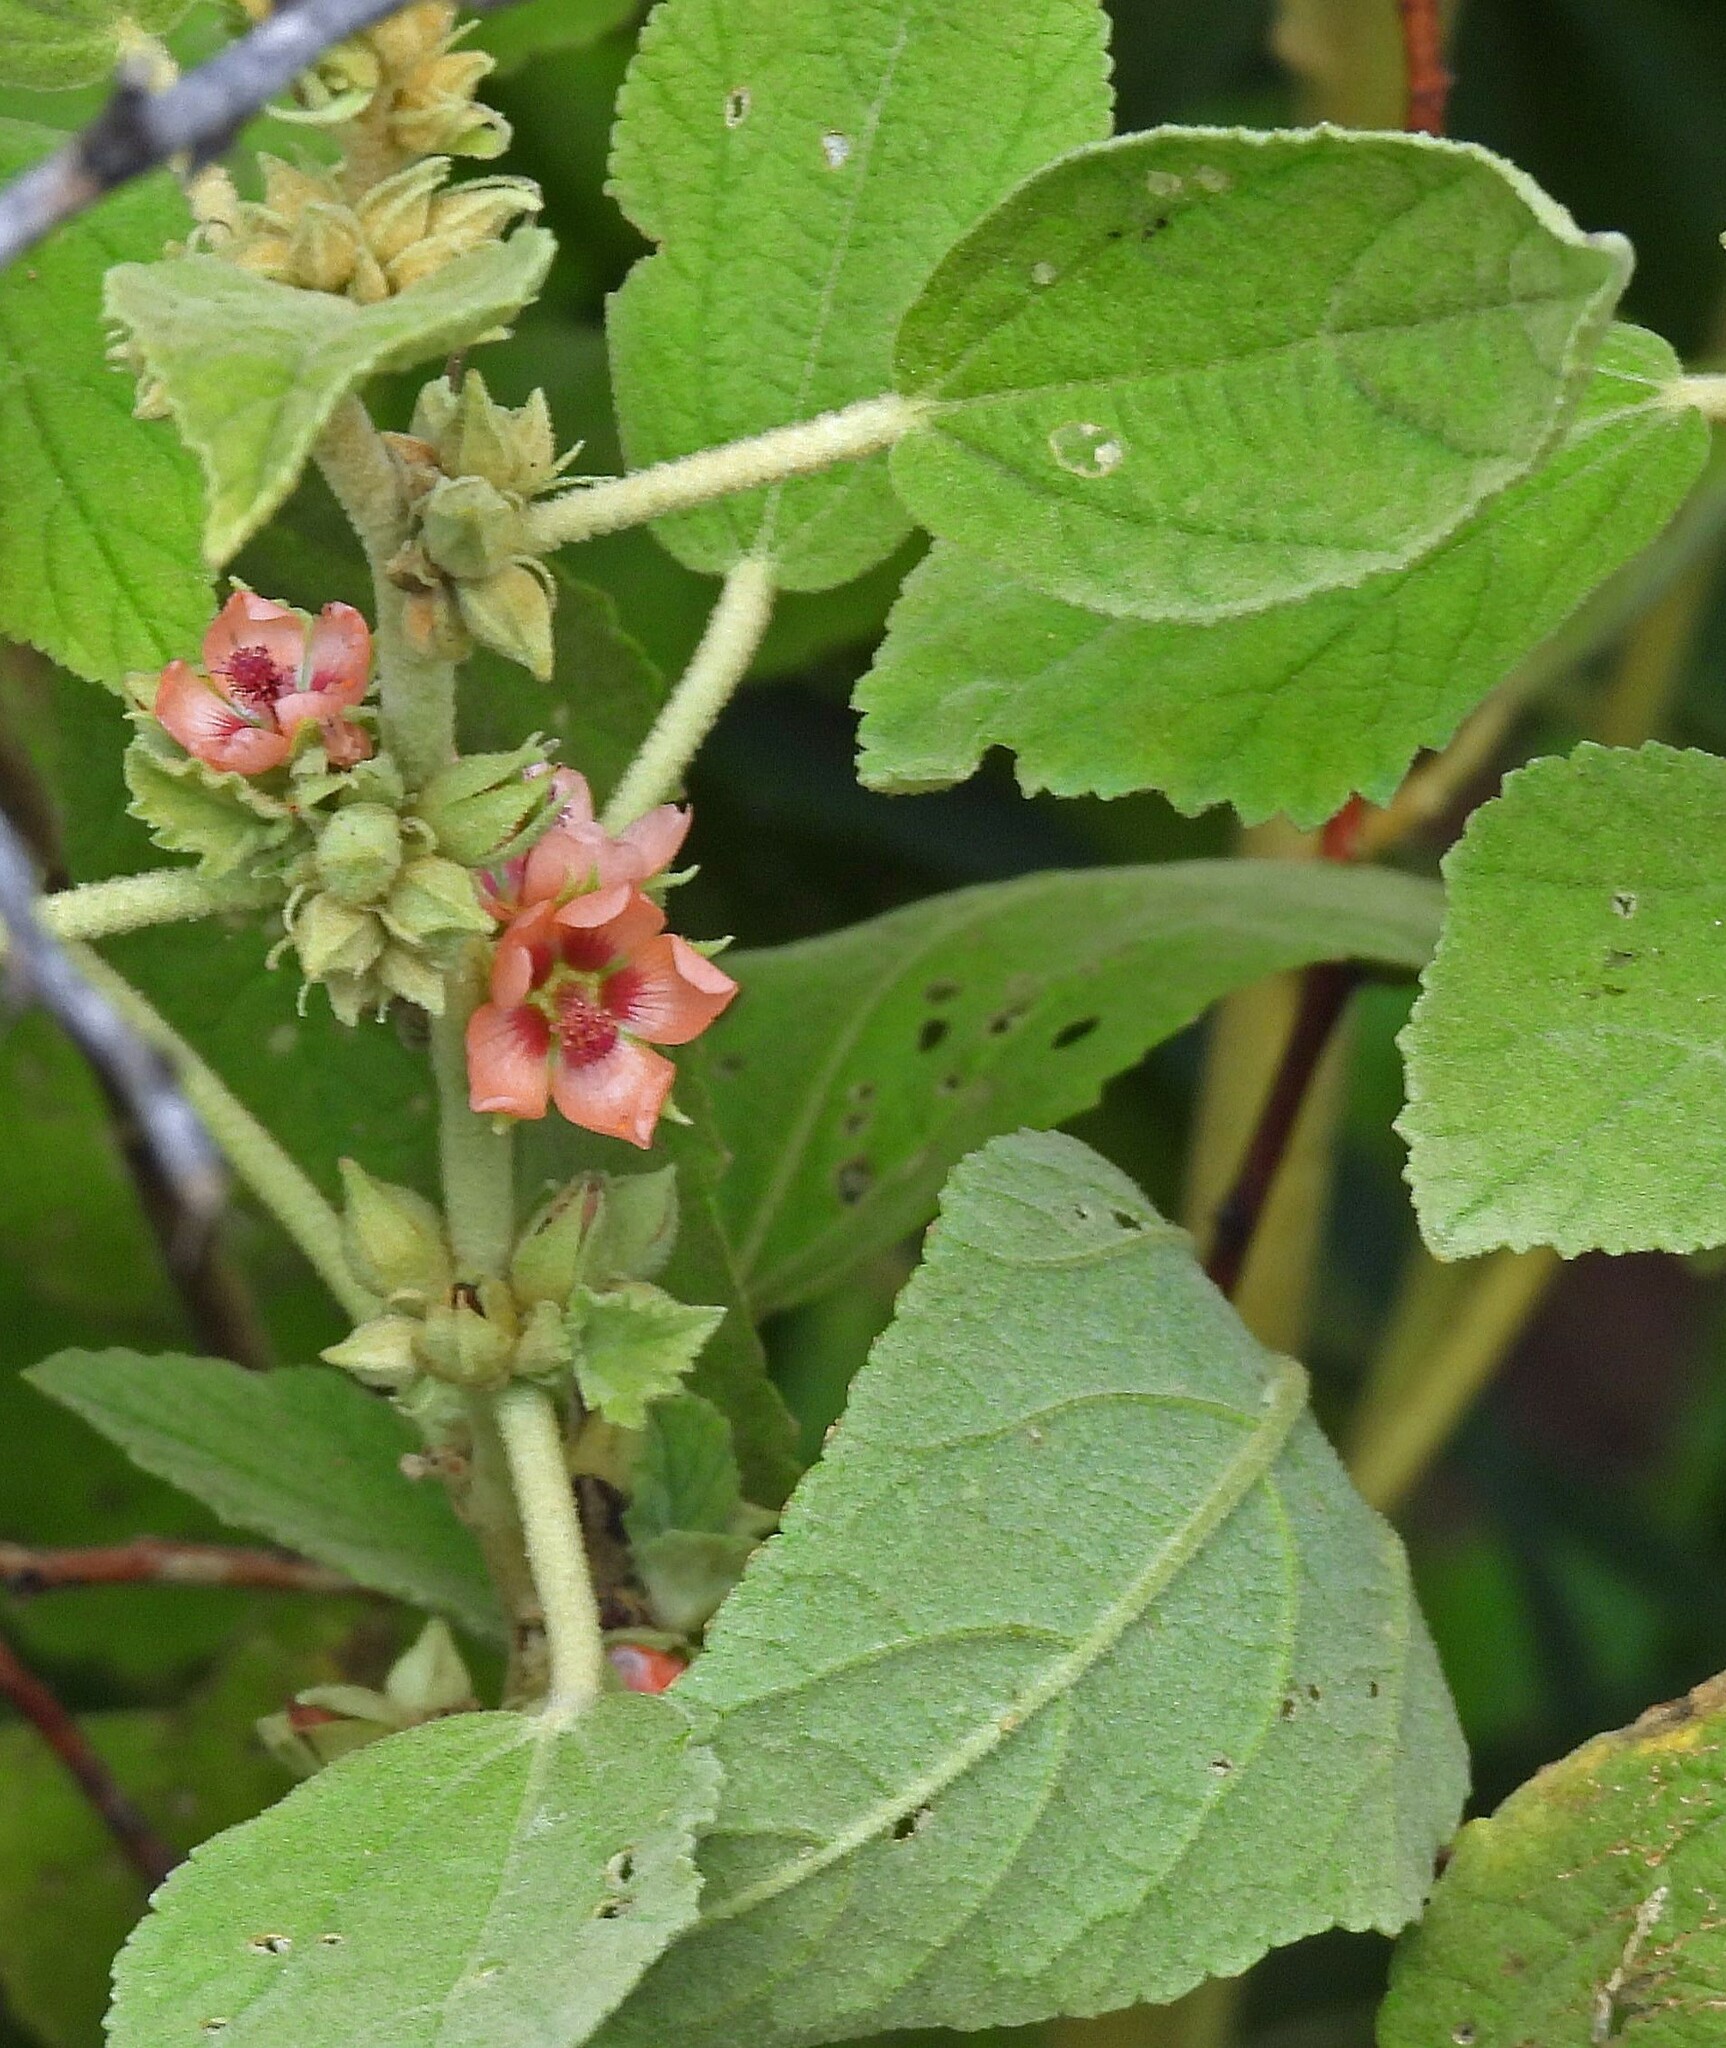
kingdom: Plantae
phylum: Tracheophyta
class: Magnoliopsida
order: Malvales
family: Malvaceae
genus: Sphaeralcea
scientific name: Sphaeralcea bonariensis
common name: Latin globemallow
